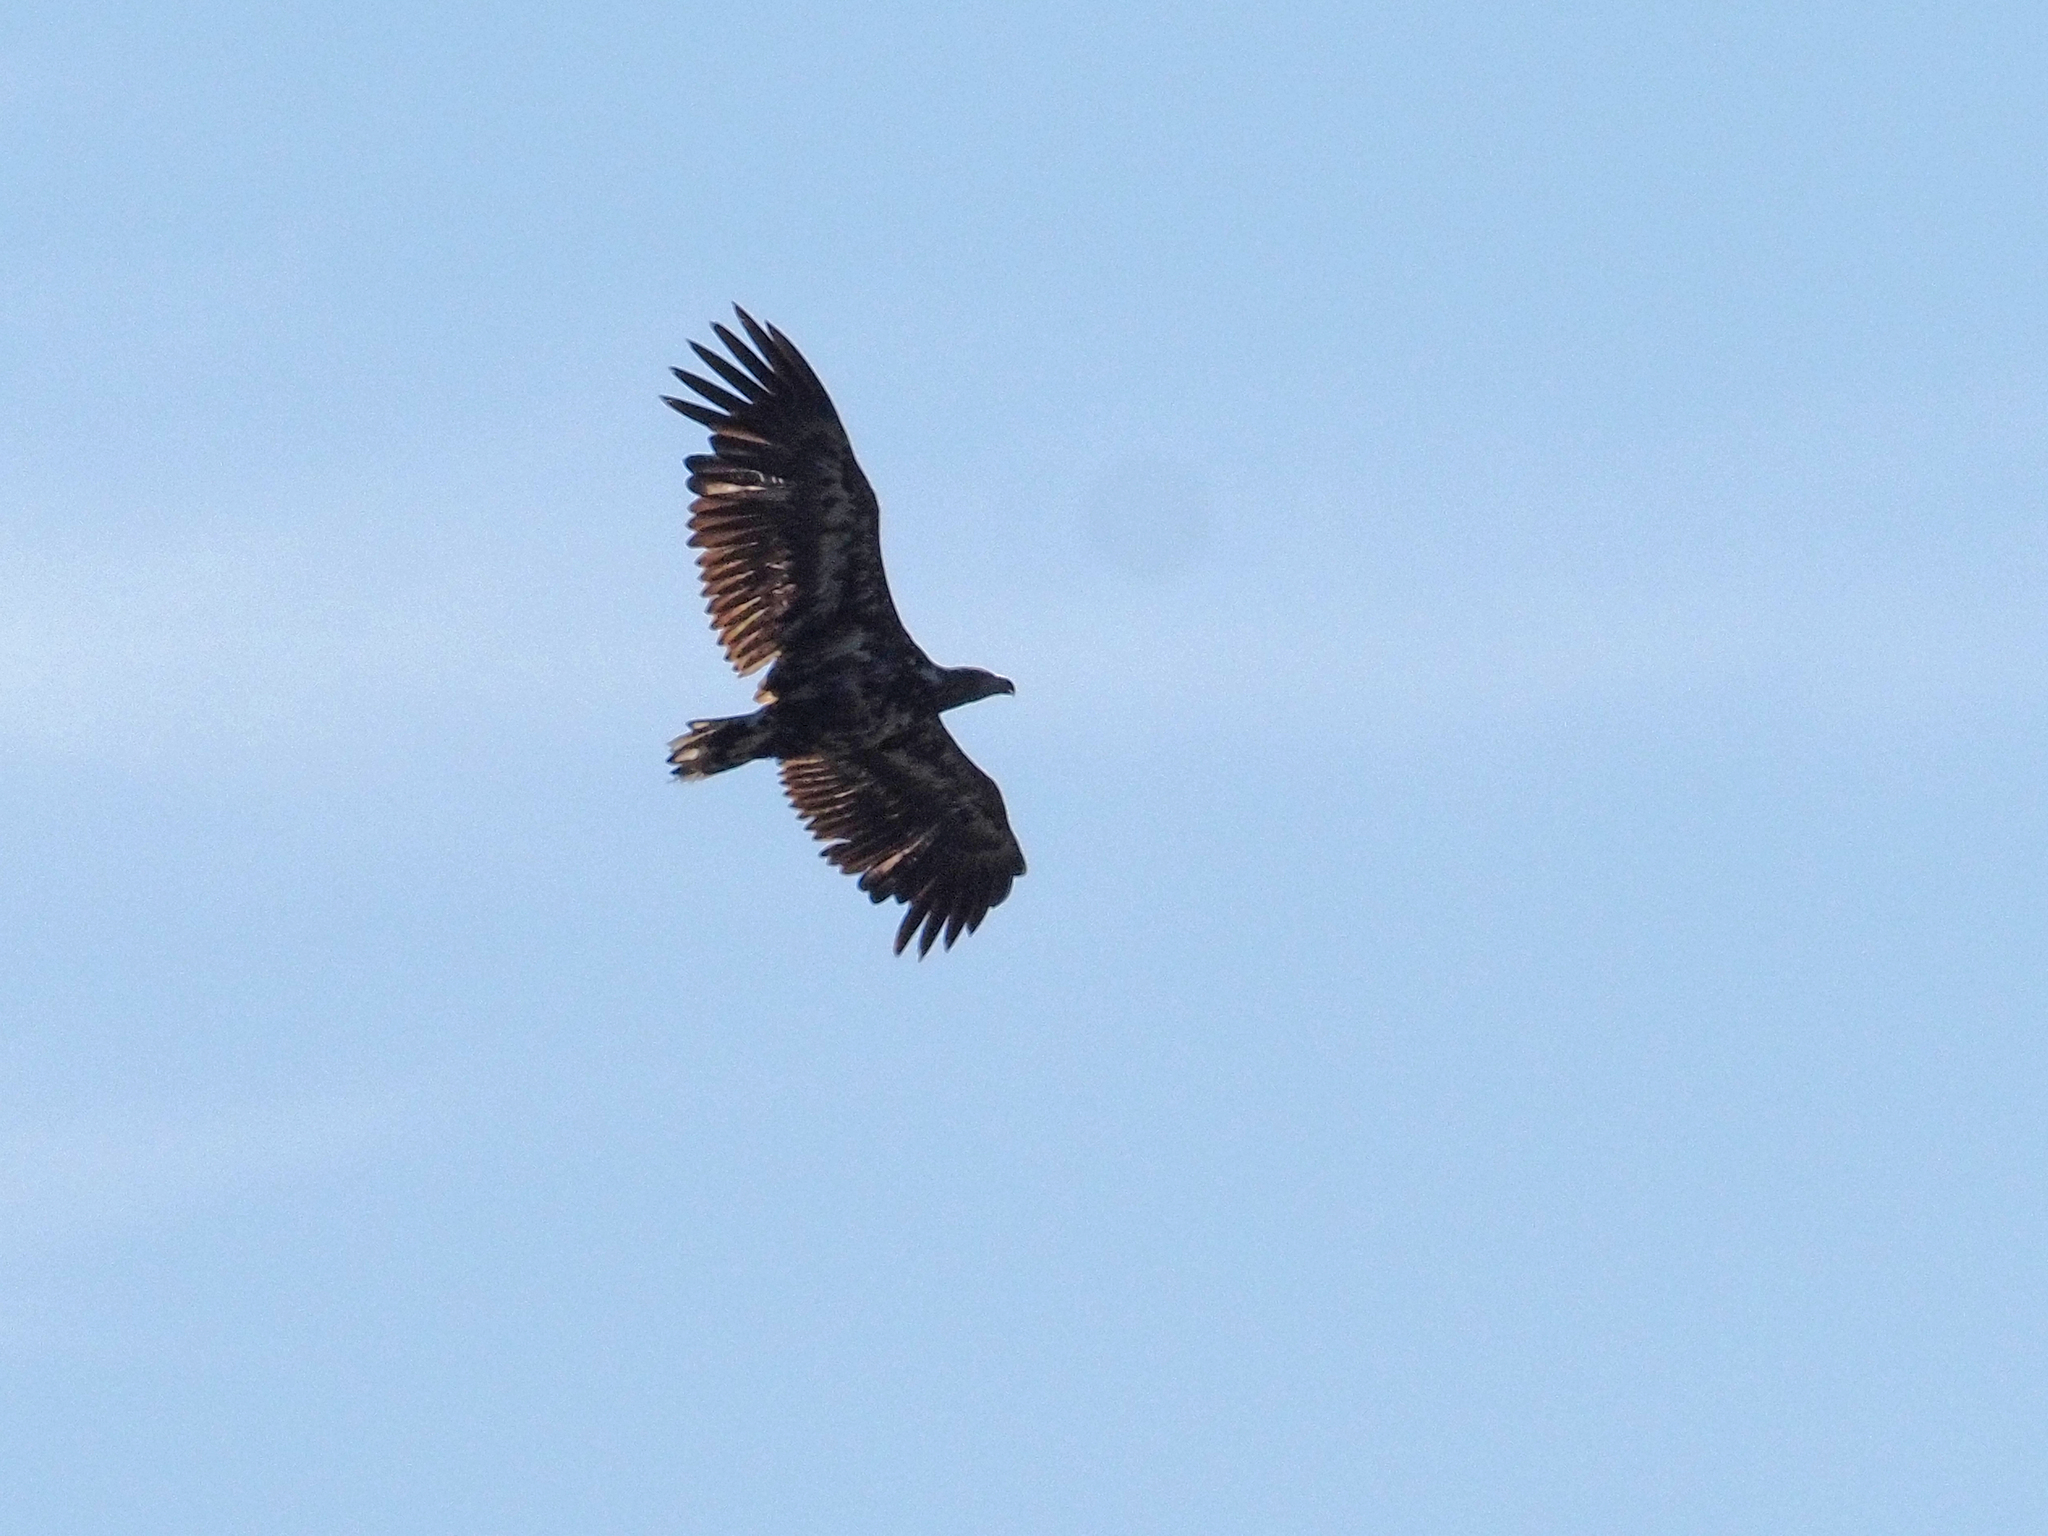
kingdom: Animalia
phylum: Chordata
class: Aves
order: Accipitriformes
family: Accipitridae
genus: Haliaeetus
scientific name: Haliaeetus albicilla
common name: White-tailed eagle
